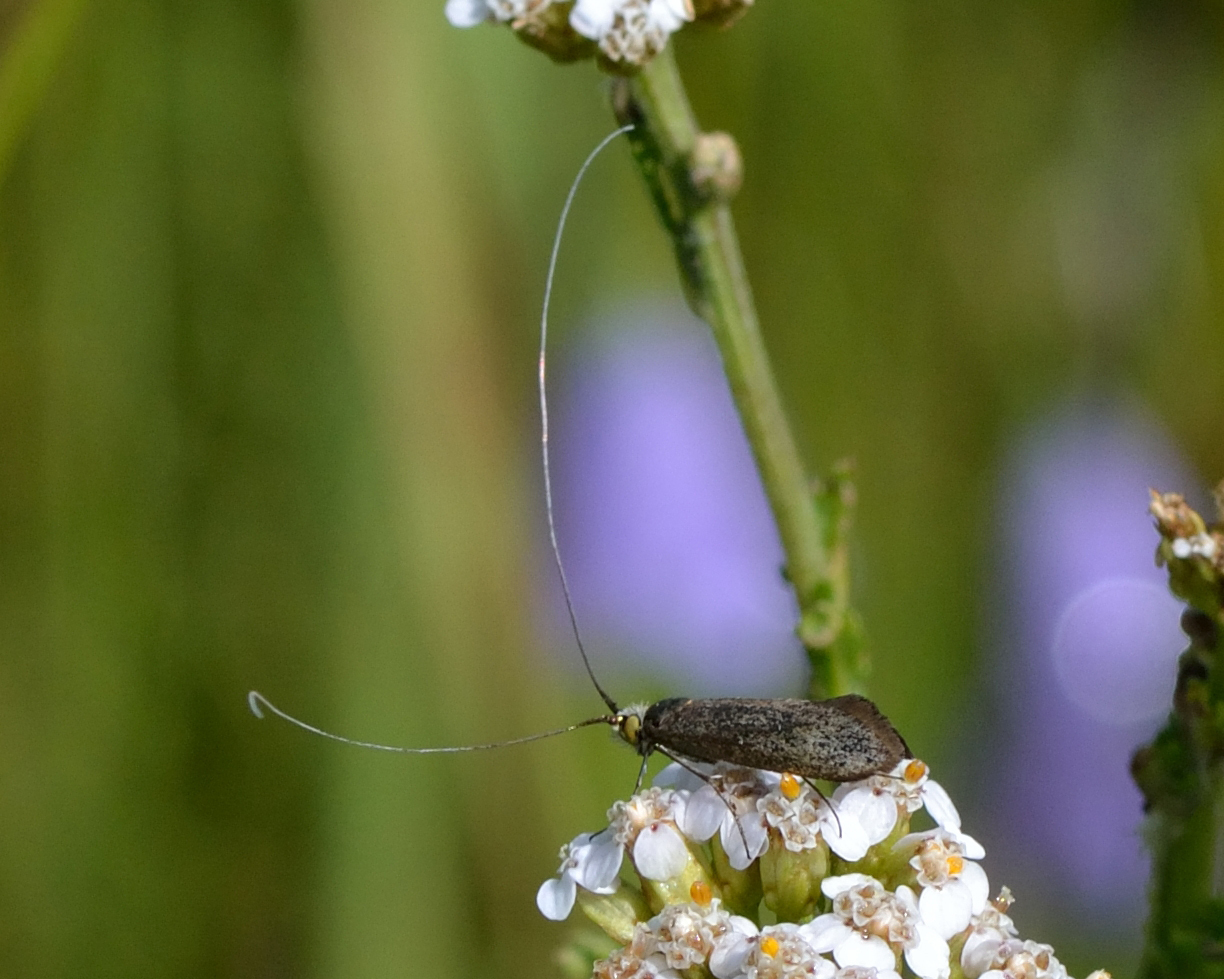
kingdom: Animalia
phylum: Arthropoda
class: Insecta
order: Lepidoptera
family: Adelidae
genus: Nemophora
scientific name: Nemophora metallica
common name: Brassy long-horn
